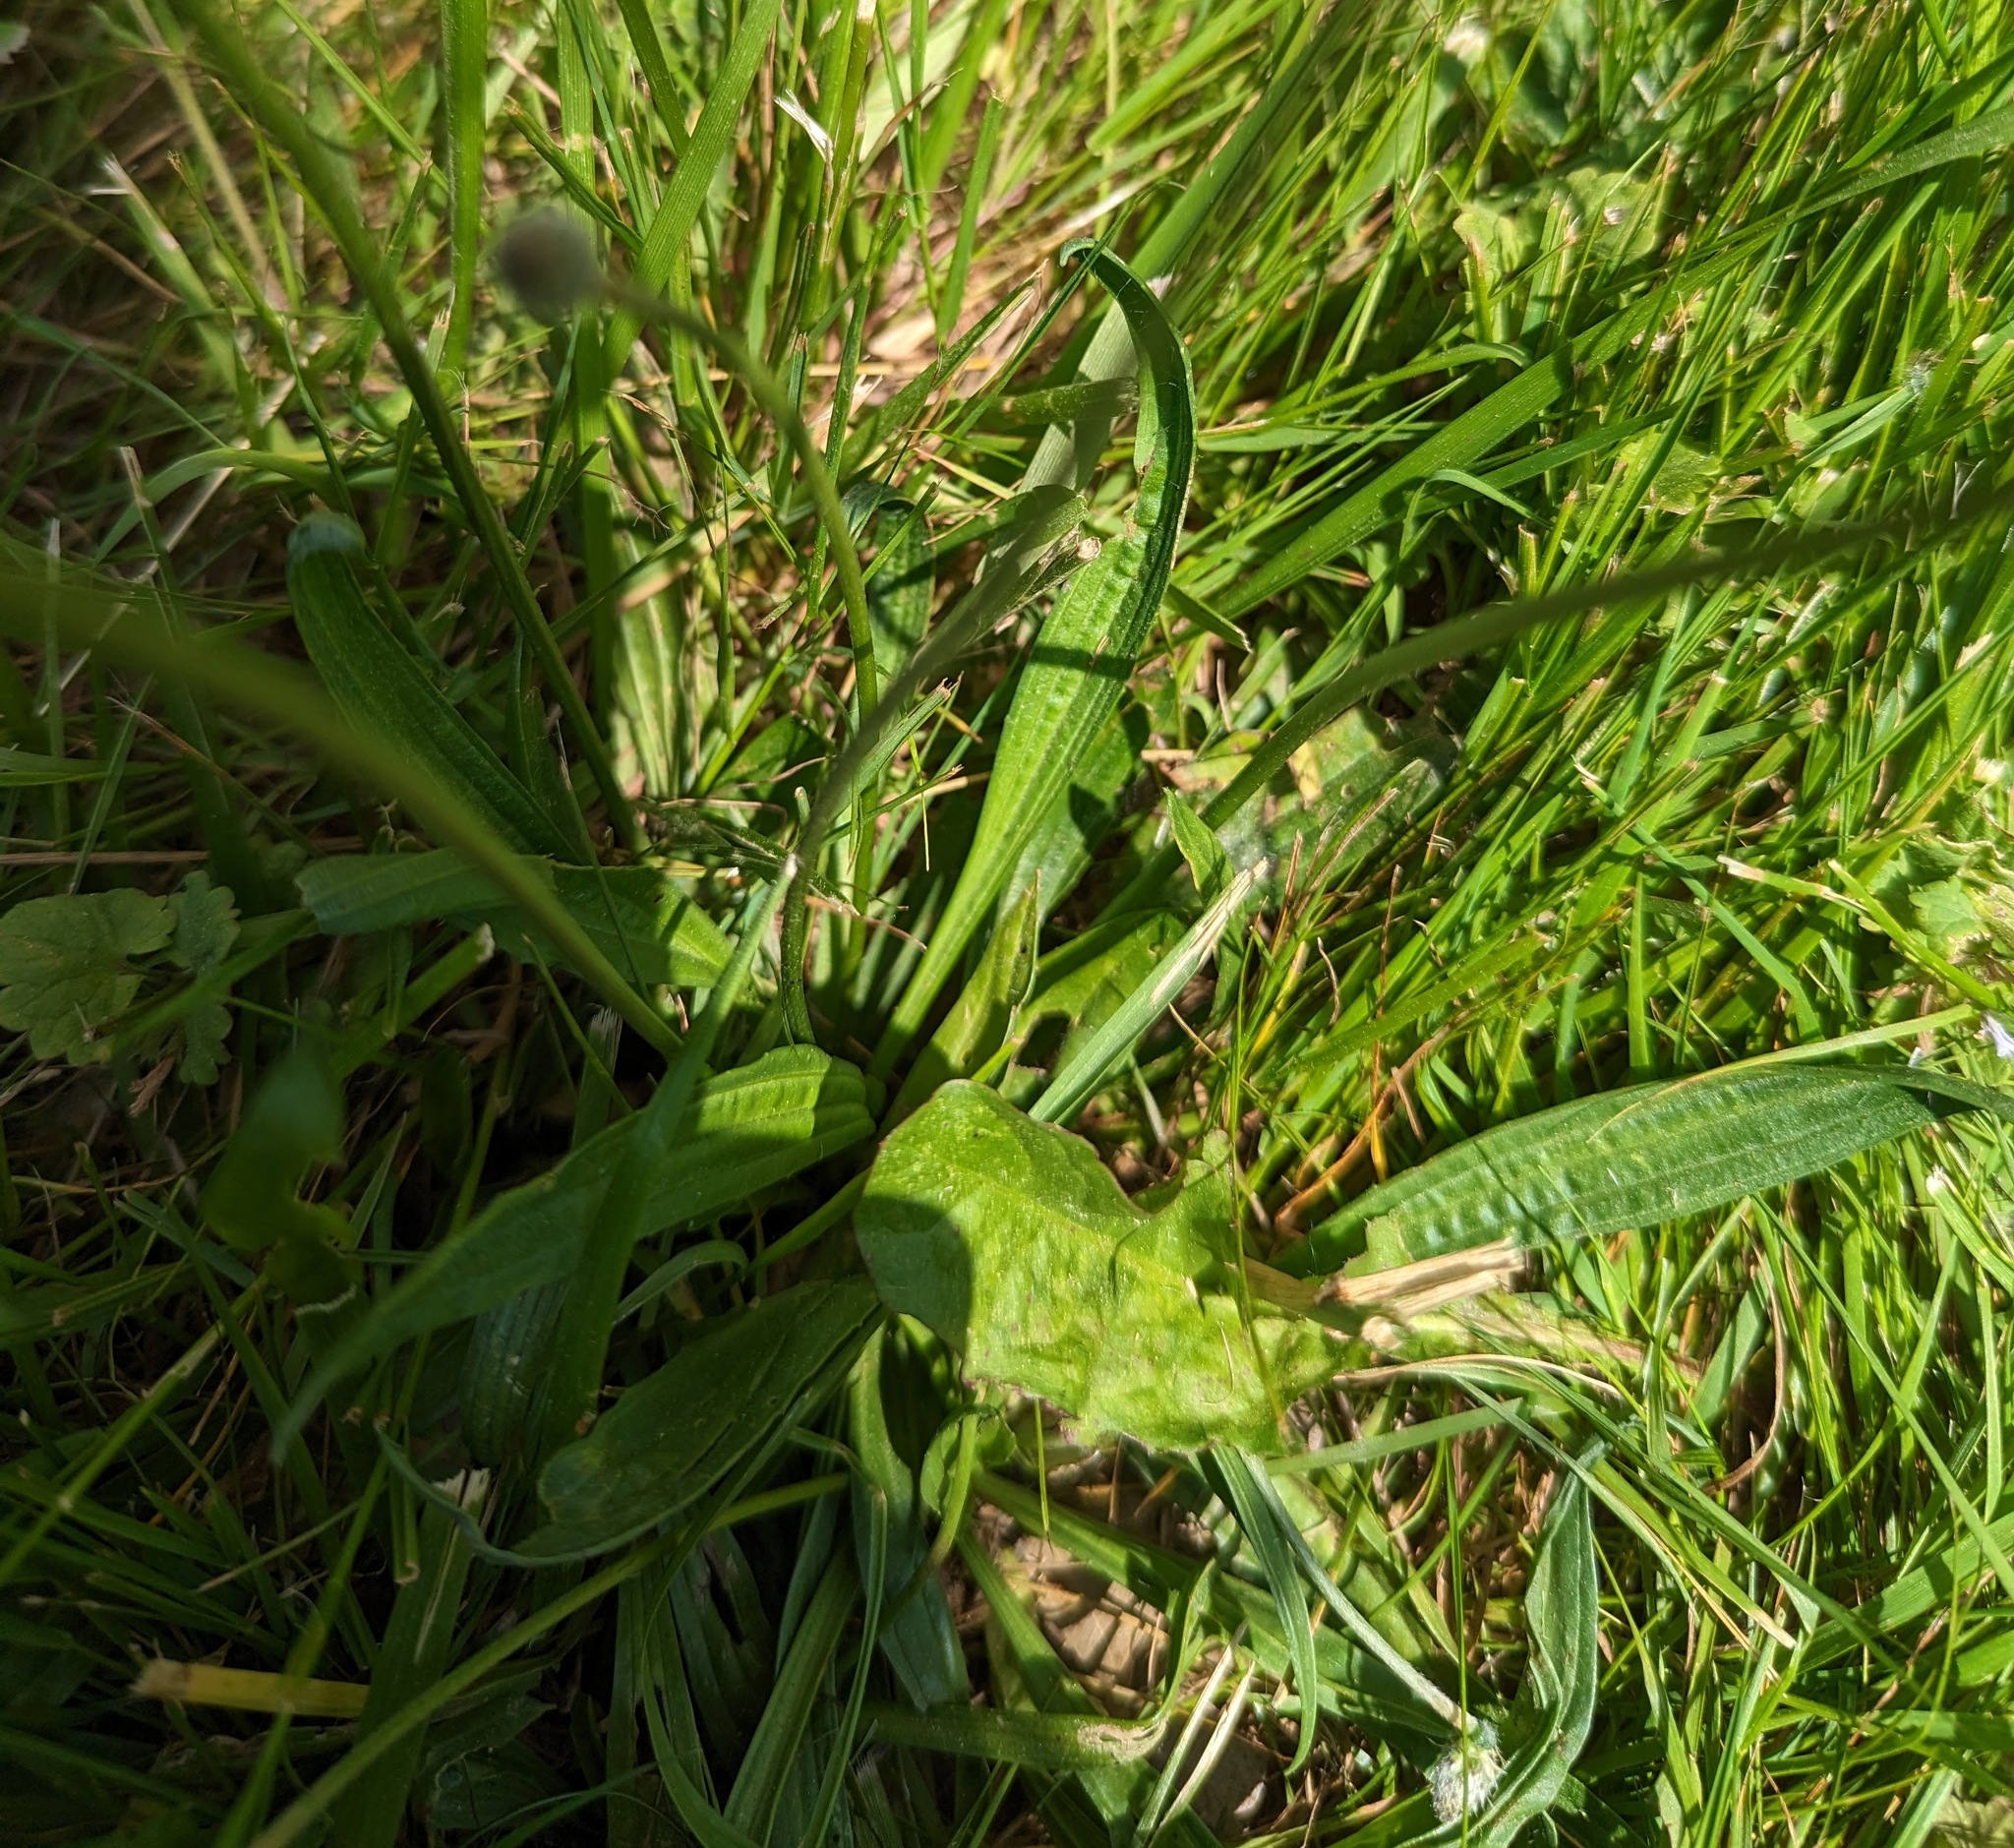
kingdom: Plantae
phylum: Tracheophyta
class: Magnoliopsida
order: Lamiales
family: Plantaginaceae
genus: Plantago
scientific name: Plantago lanceolata
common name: Ribwort plantain
